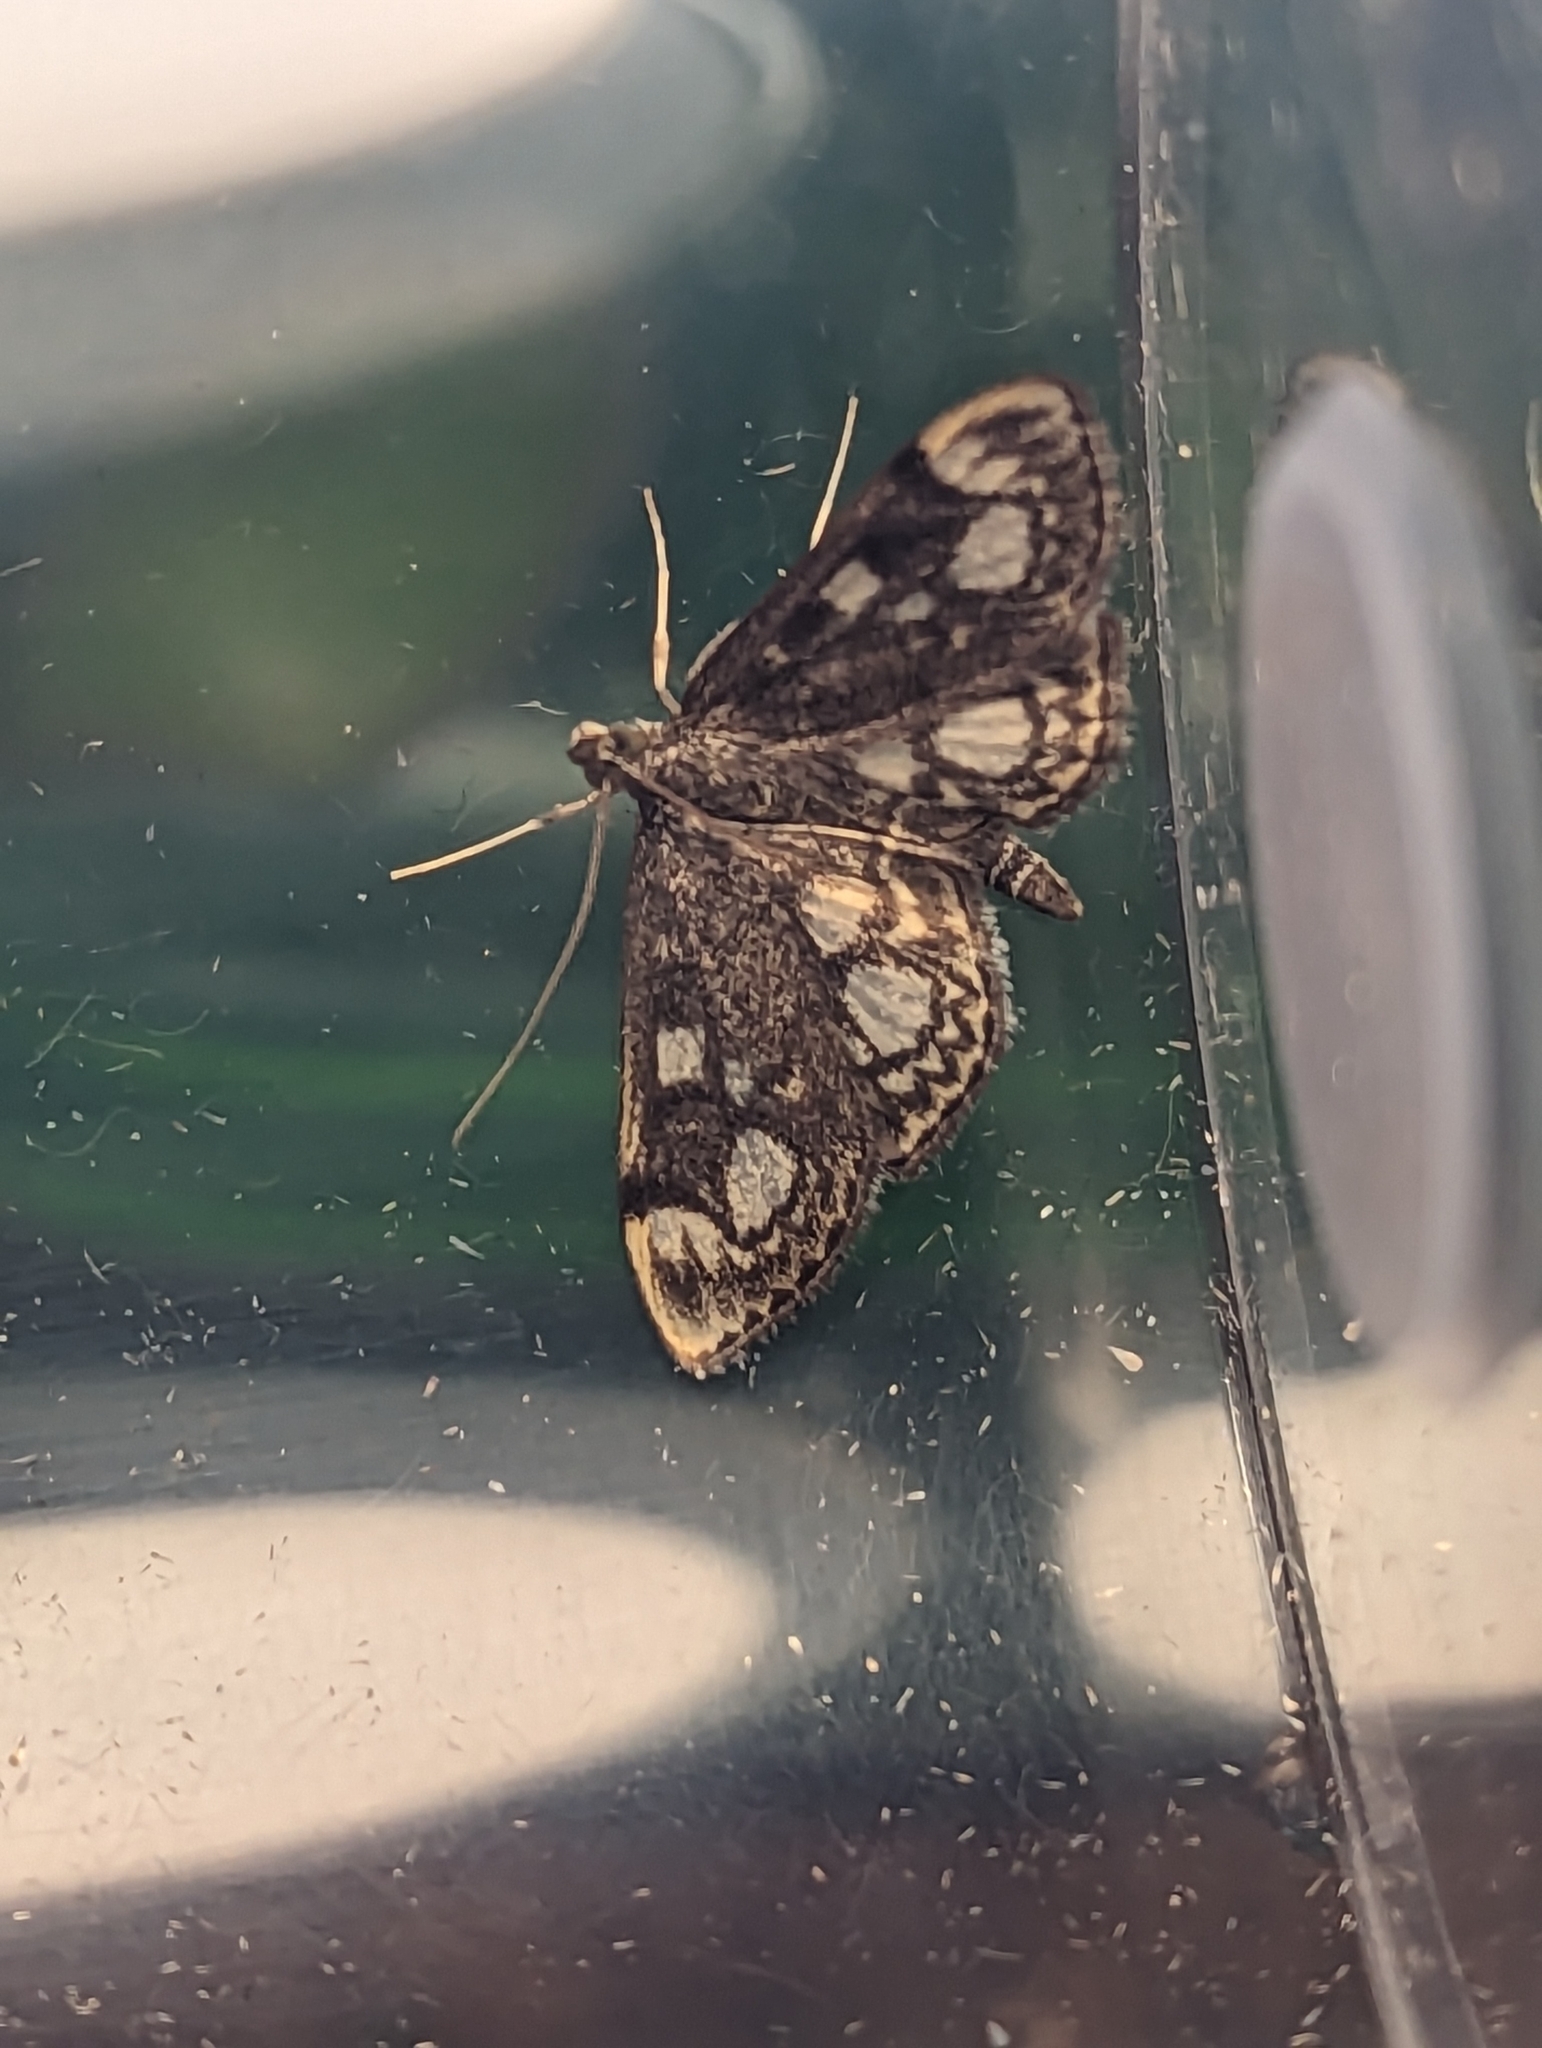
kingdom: Animalia
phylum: Arthropoda
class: Insecta
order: Lepidoptera
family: Crambidae
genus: Anania
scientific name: Anania coronata
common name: Elder pearl
